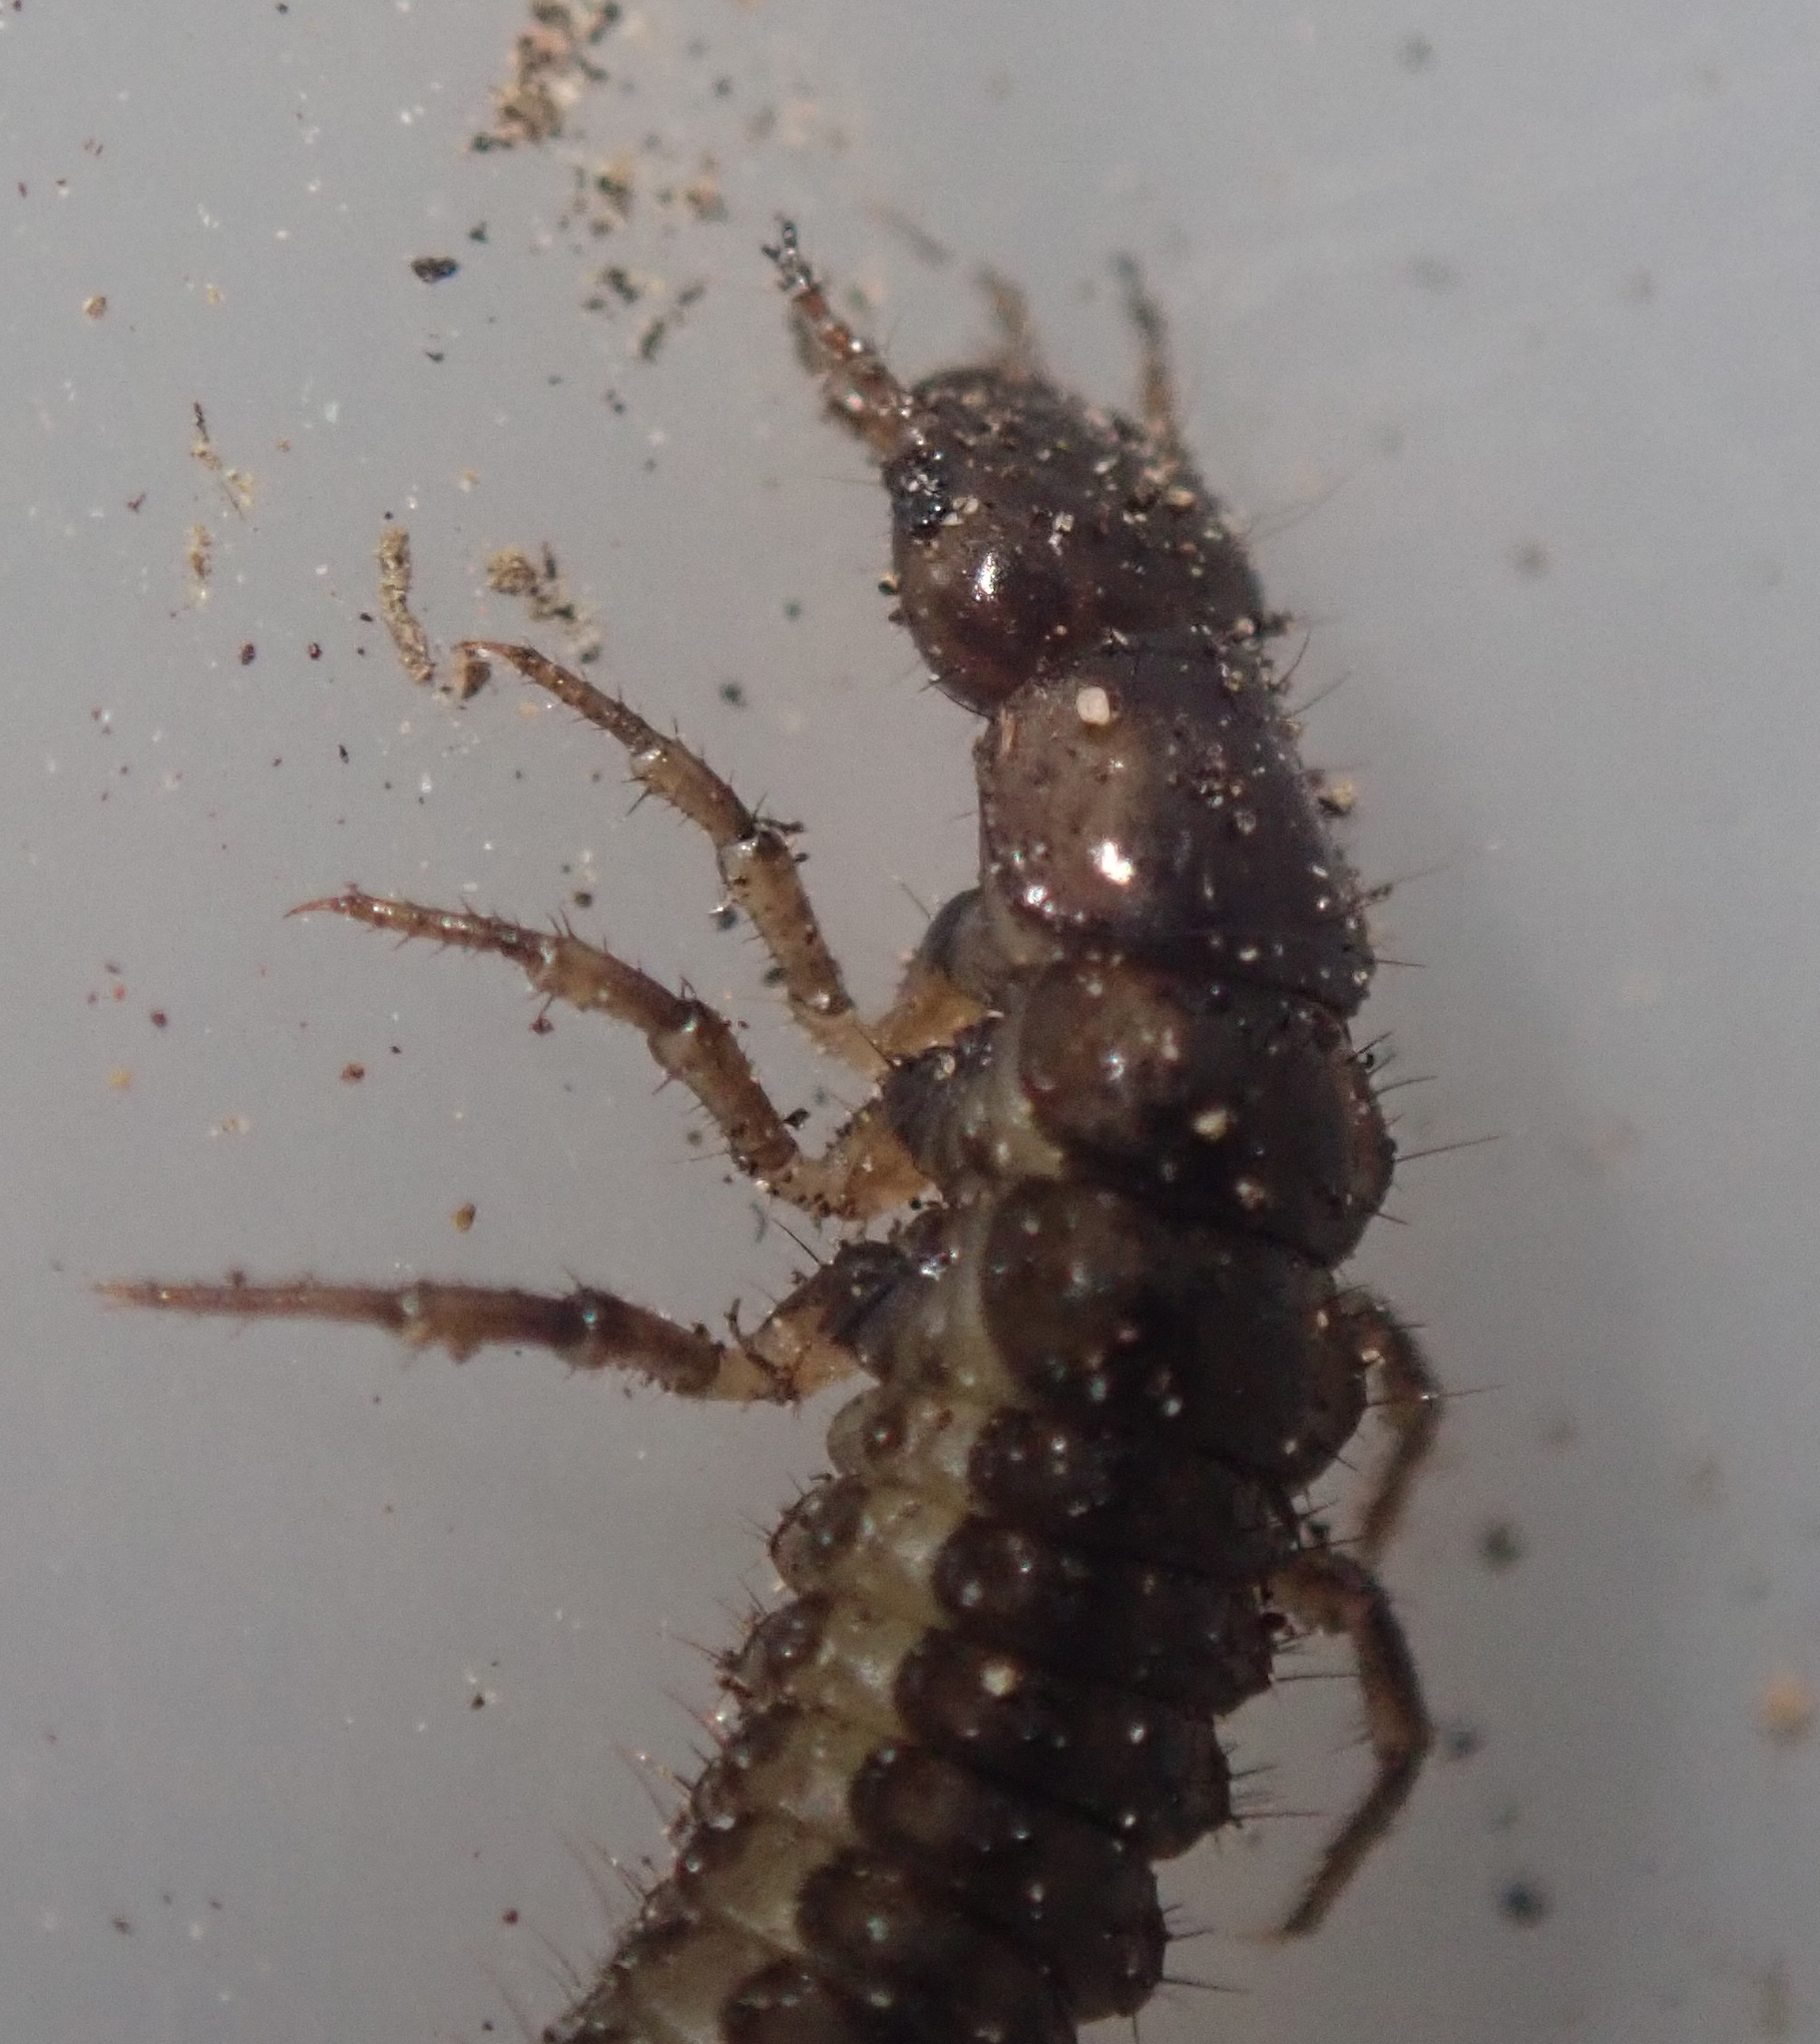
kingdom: Animalia
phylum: Arthropoda
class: Insecta
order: Coleoptera
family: Carabidae
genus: Nebria
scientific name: Nebria
